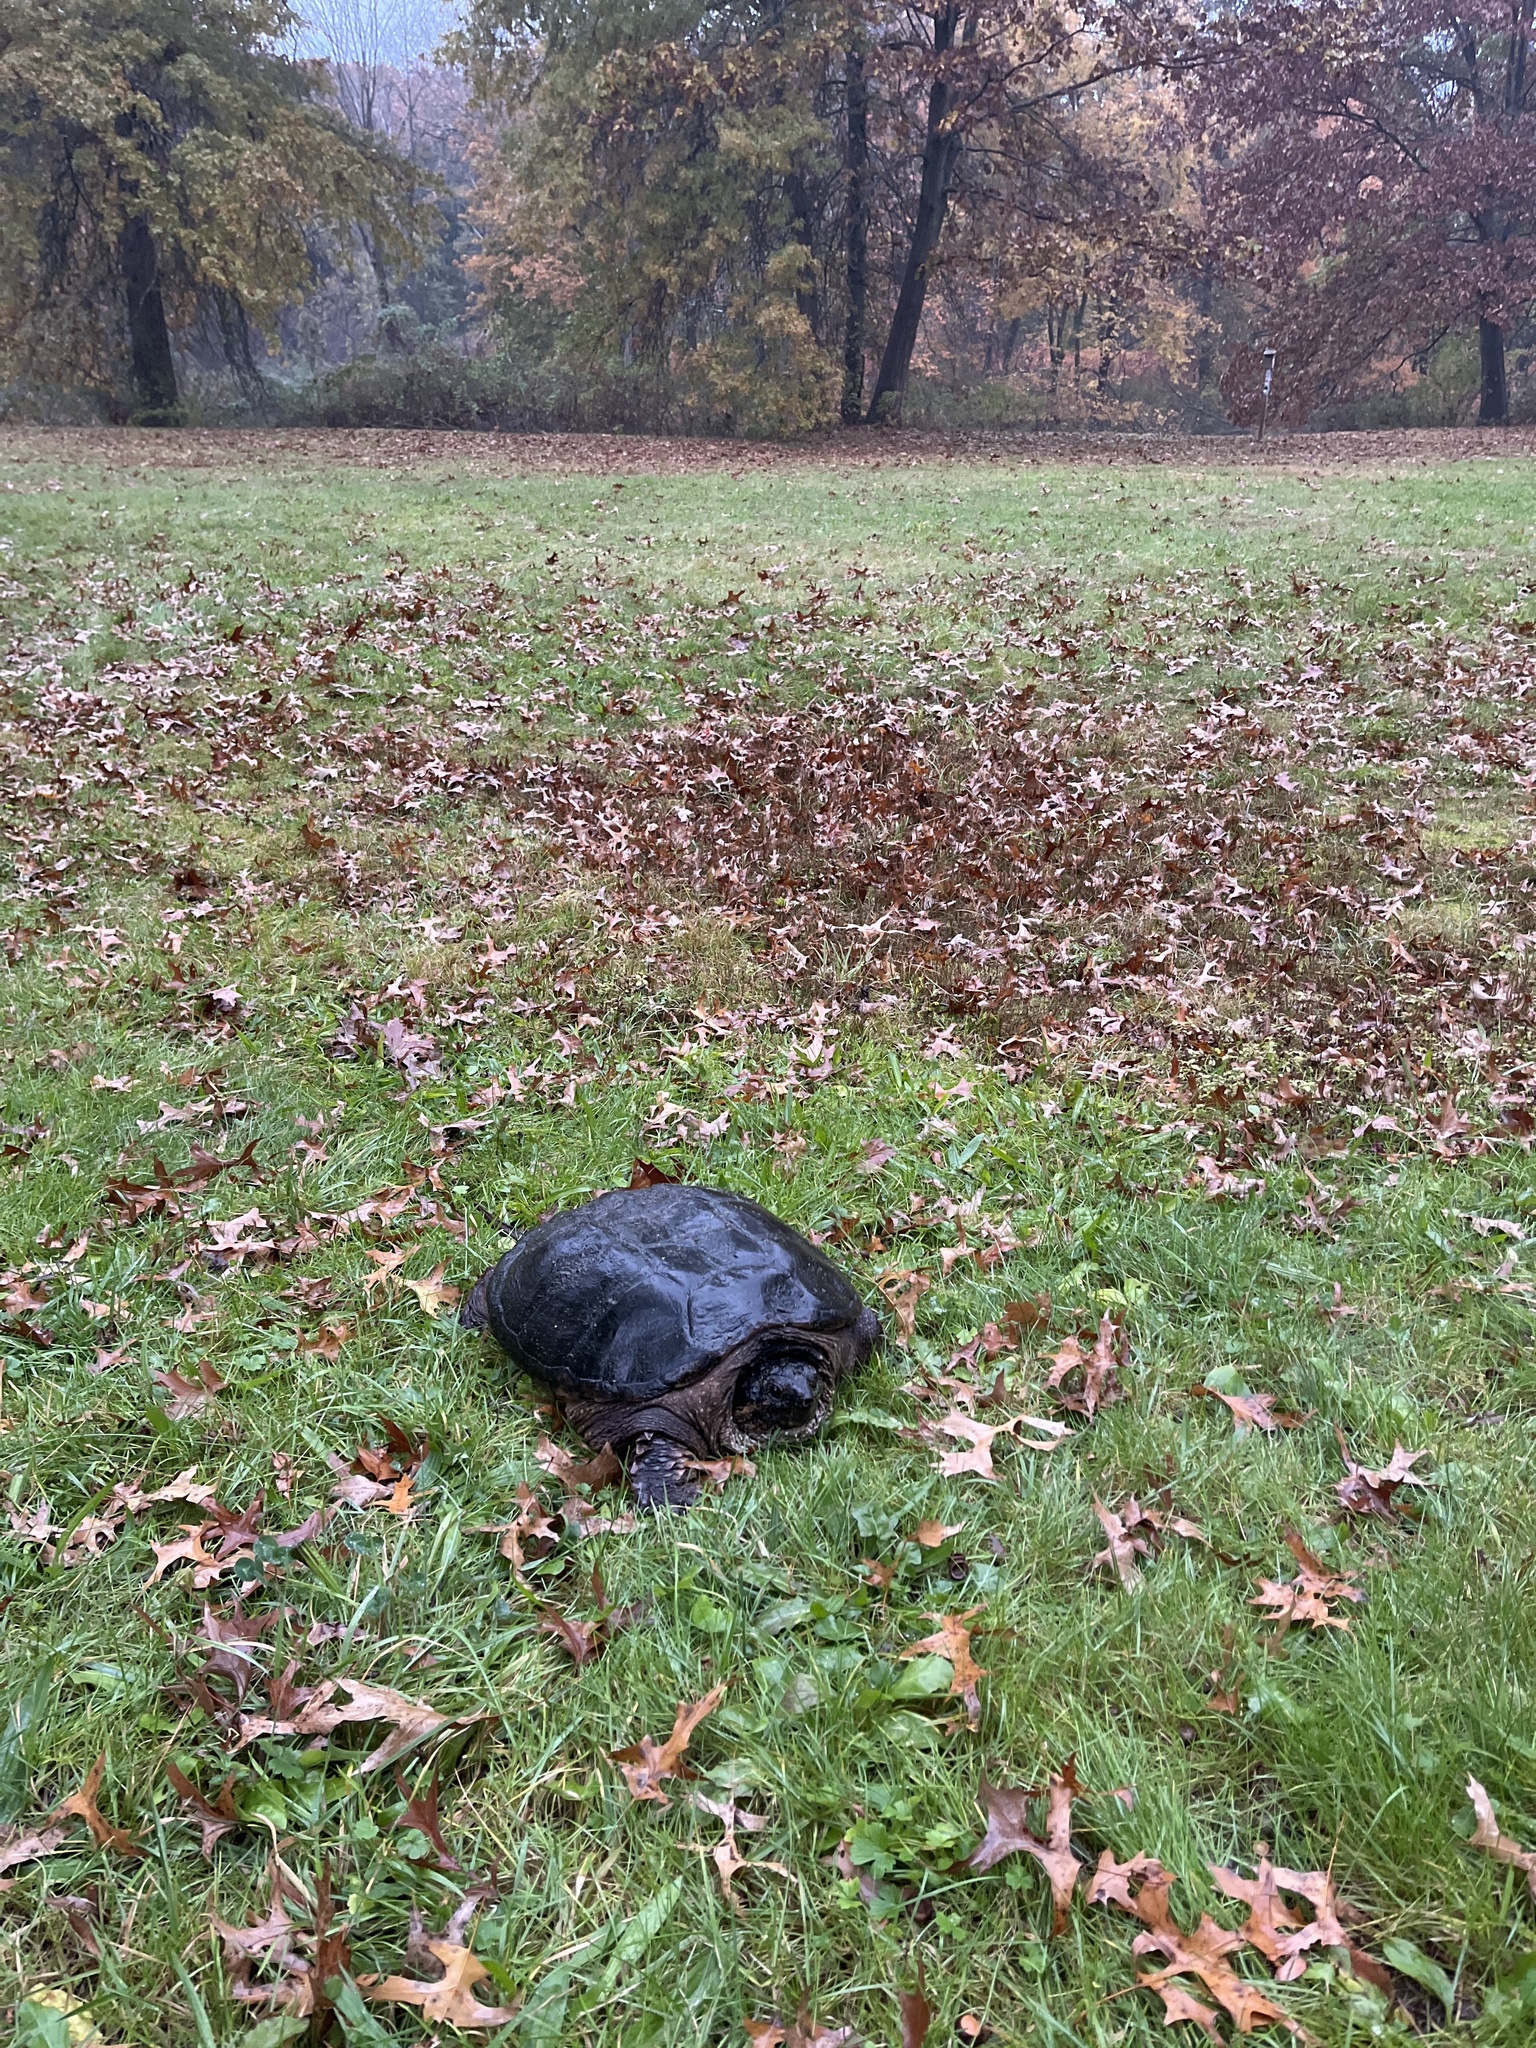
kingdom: Animalia
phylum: Chordata
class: Testudines
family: Chelydridae
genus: Chelydra
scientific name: Chelydra serpentina
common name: Common snapping turtle
